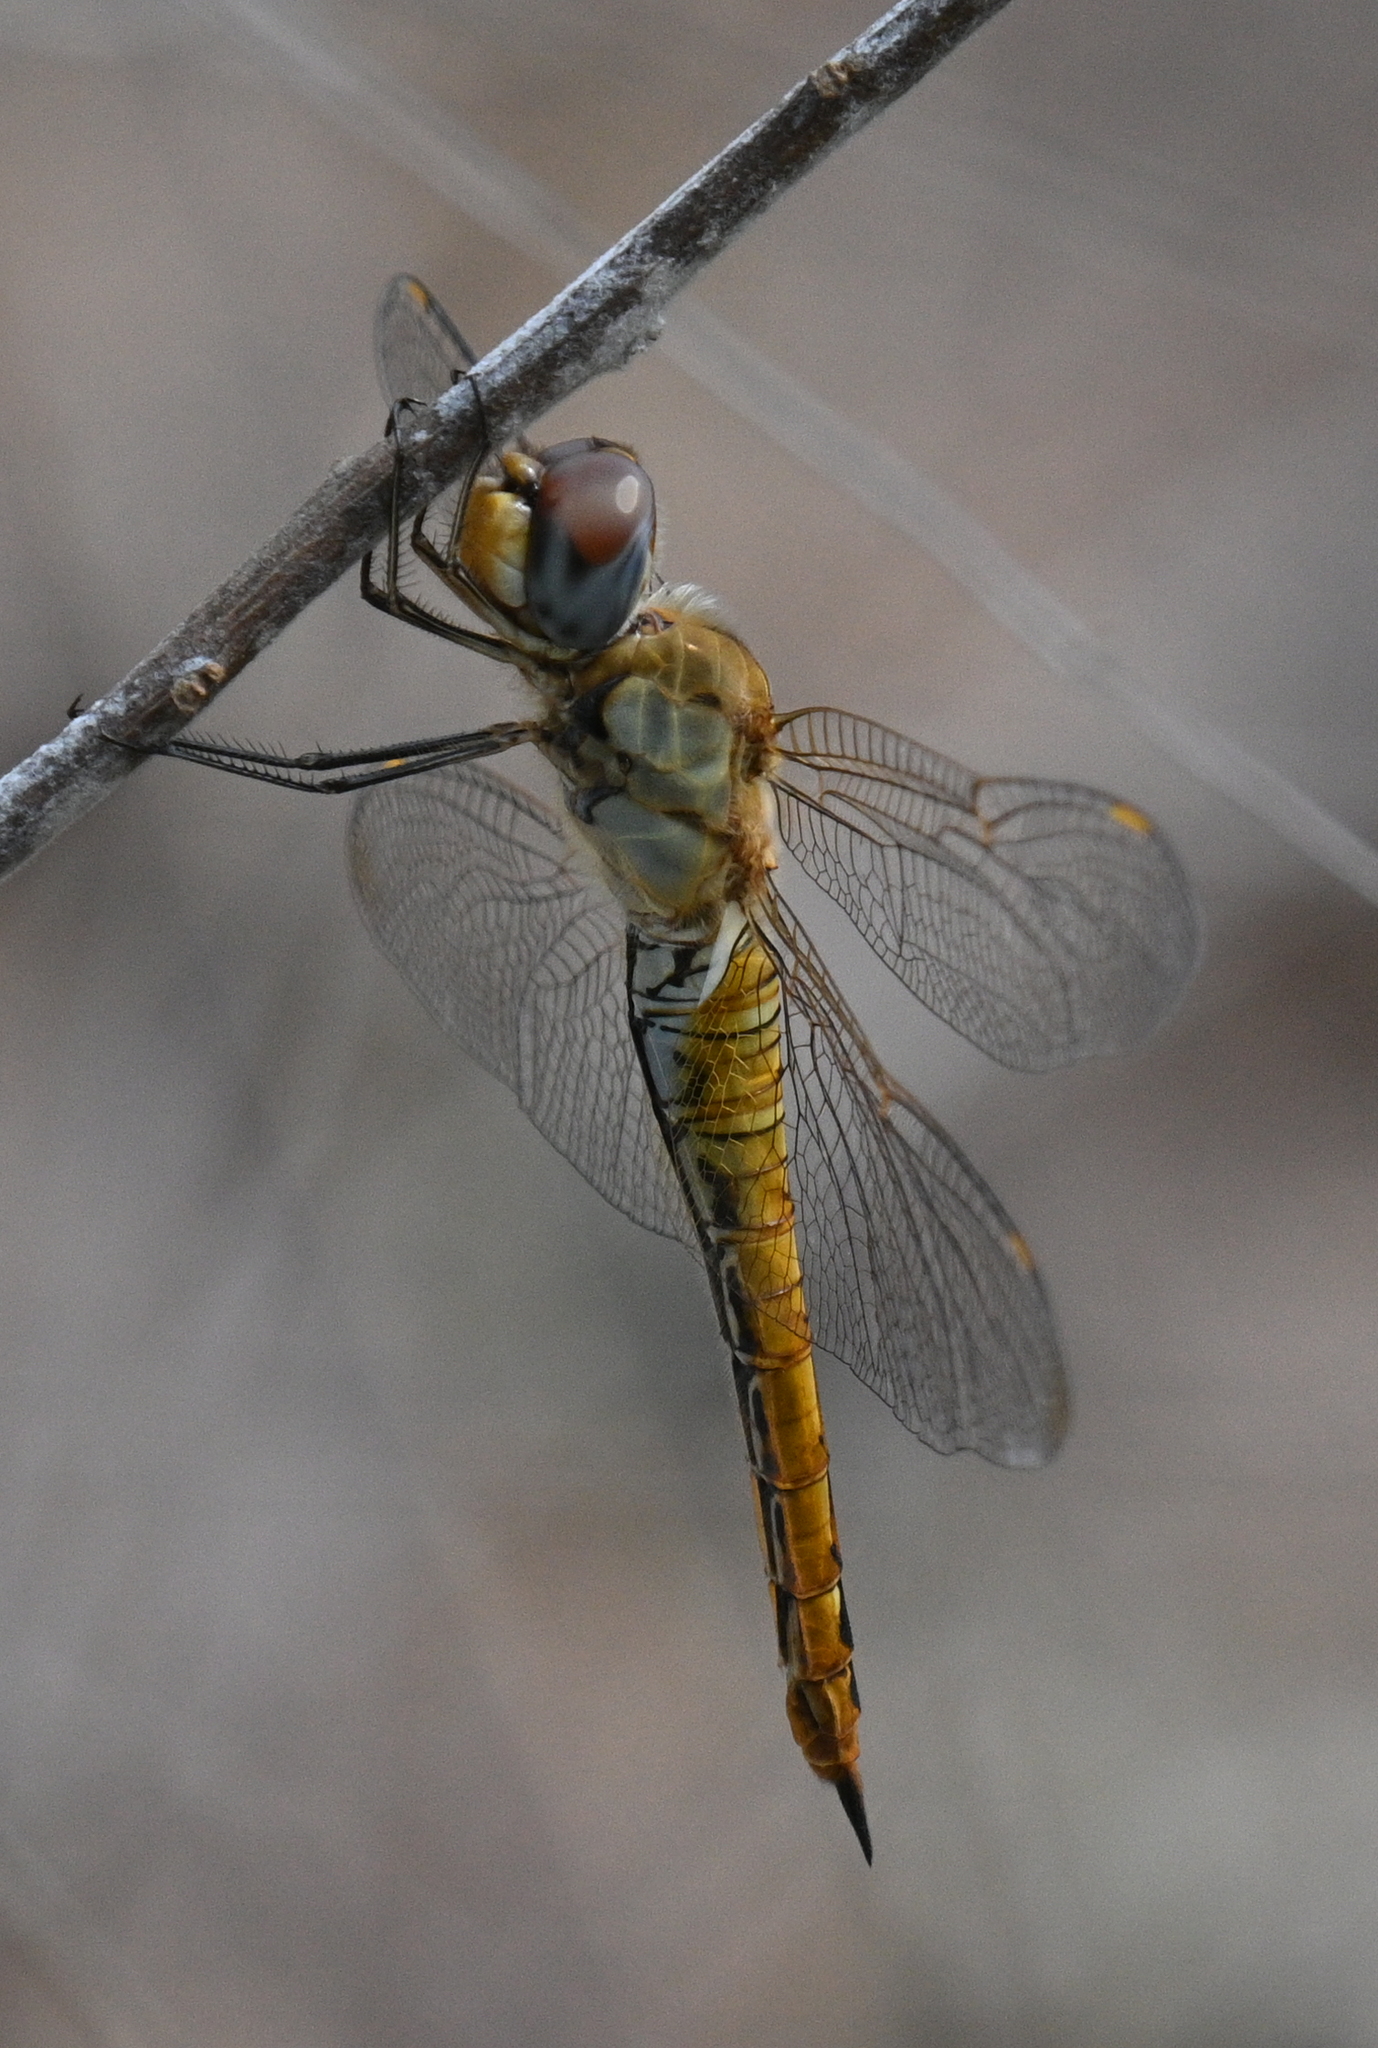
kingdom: Animalia
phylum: Arthropoda
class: Insecta
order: Odonata
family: Libellulidae
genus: Pantala
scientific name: Pantala flavescens
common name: Wandering glider
